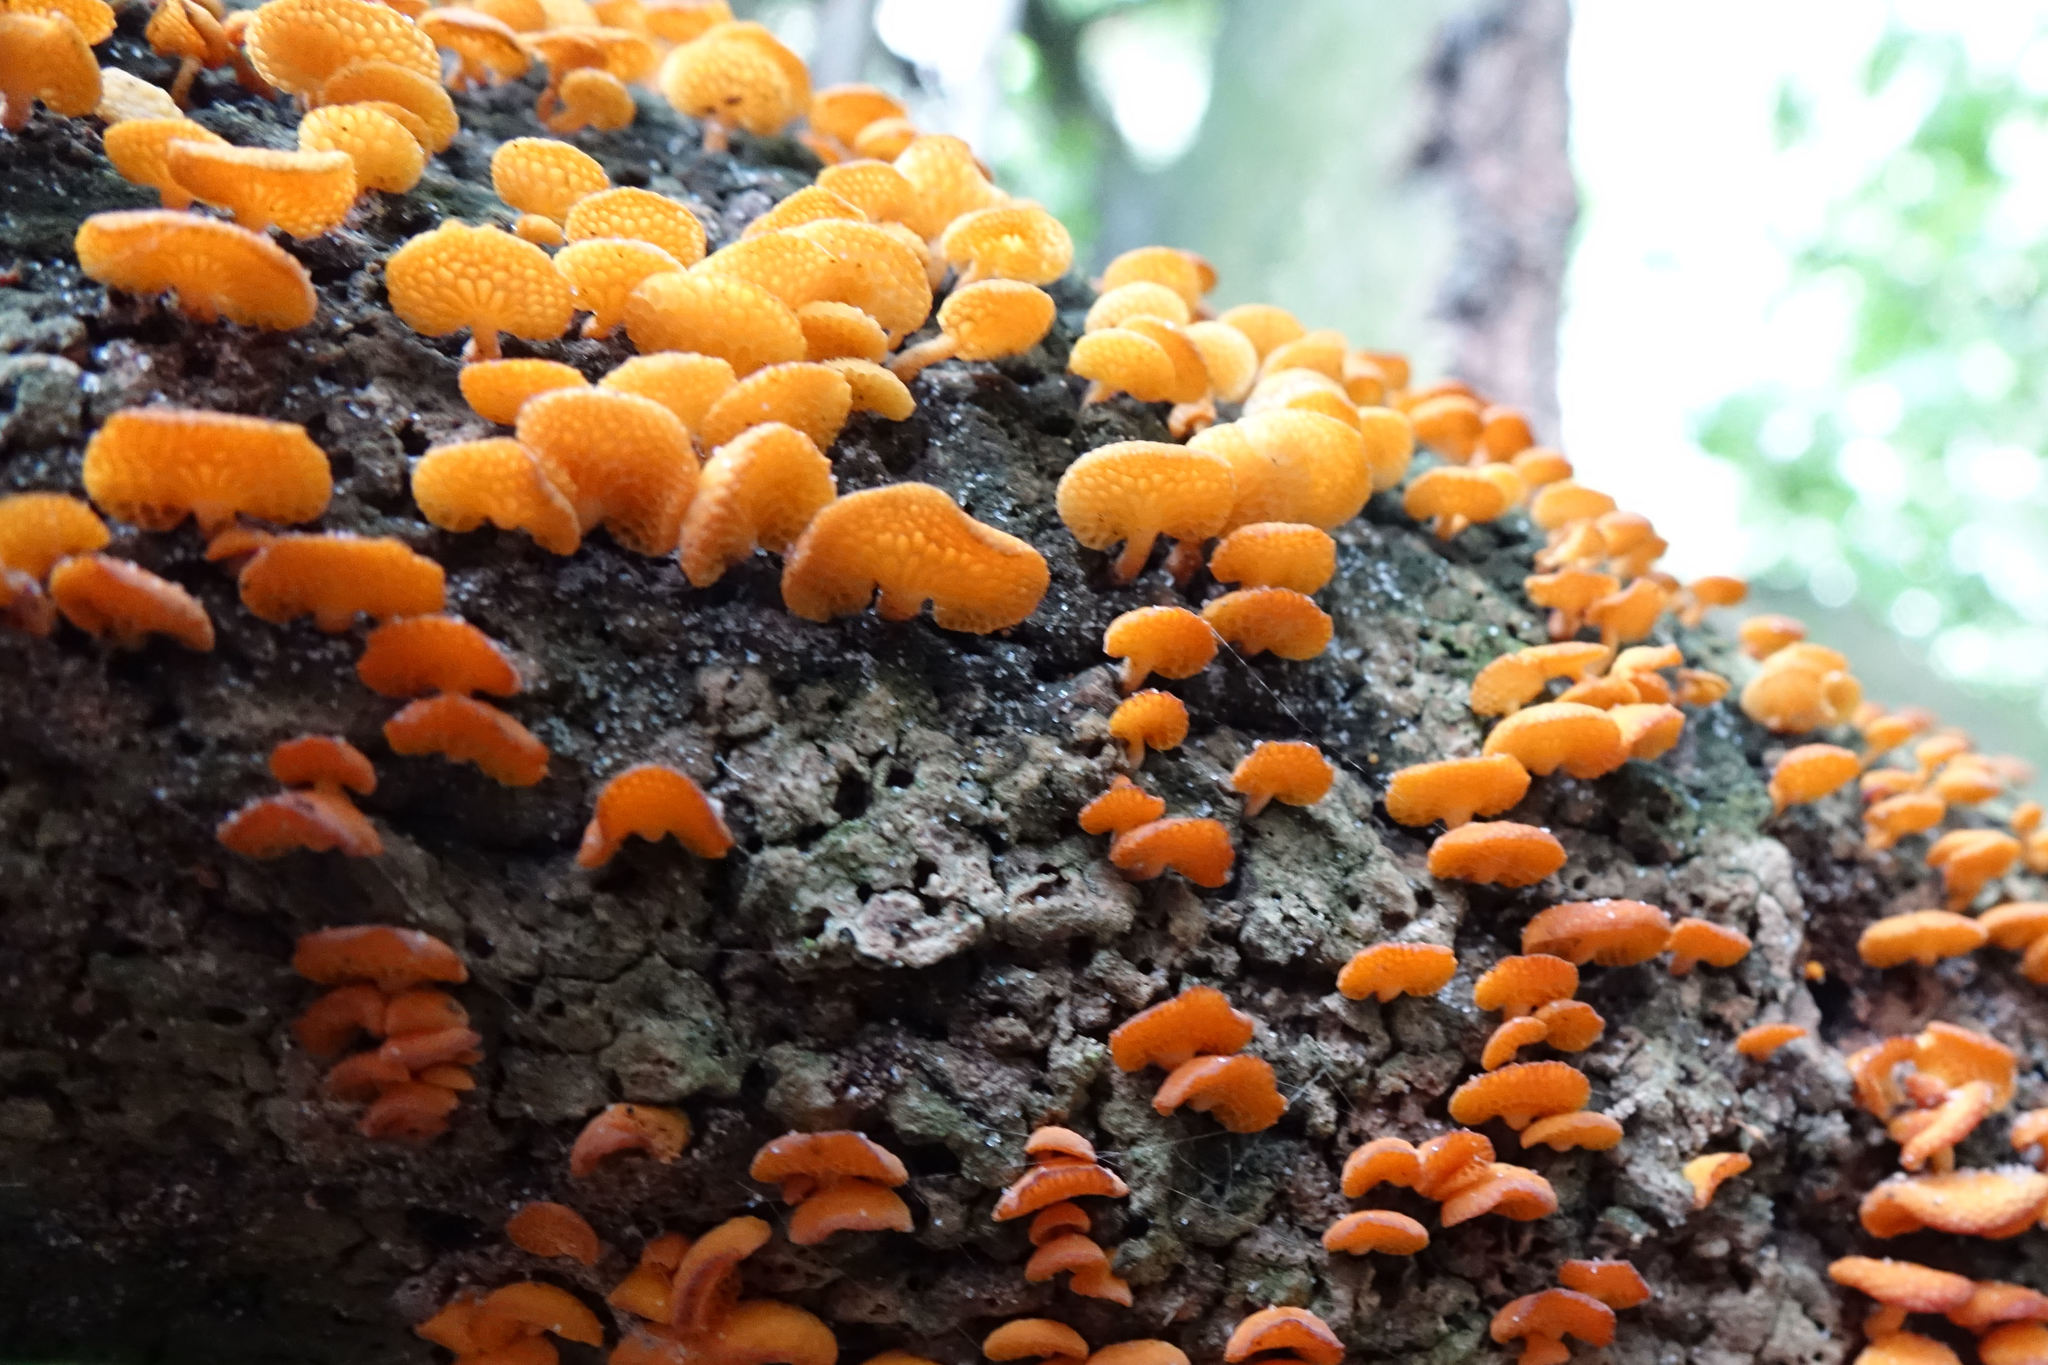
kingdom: Fungi
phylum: Basidiomycota
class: Agaricomycetes
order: Agaricales
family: Mycenaceae
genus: Favolaschia
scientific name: Favolaschia claudopus
